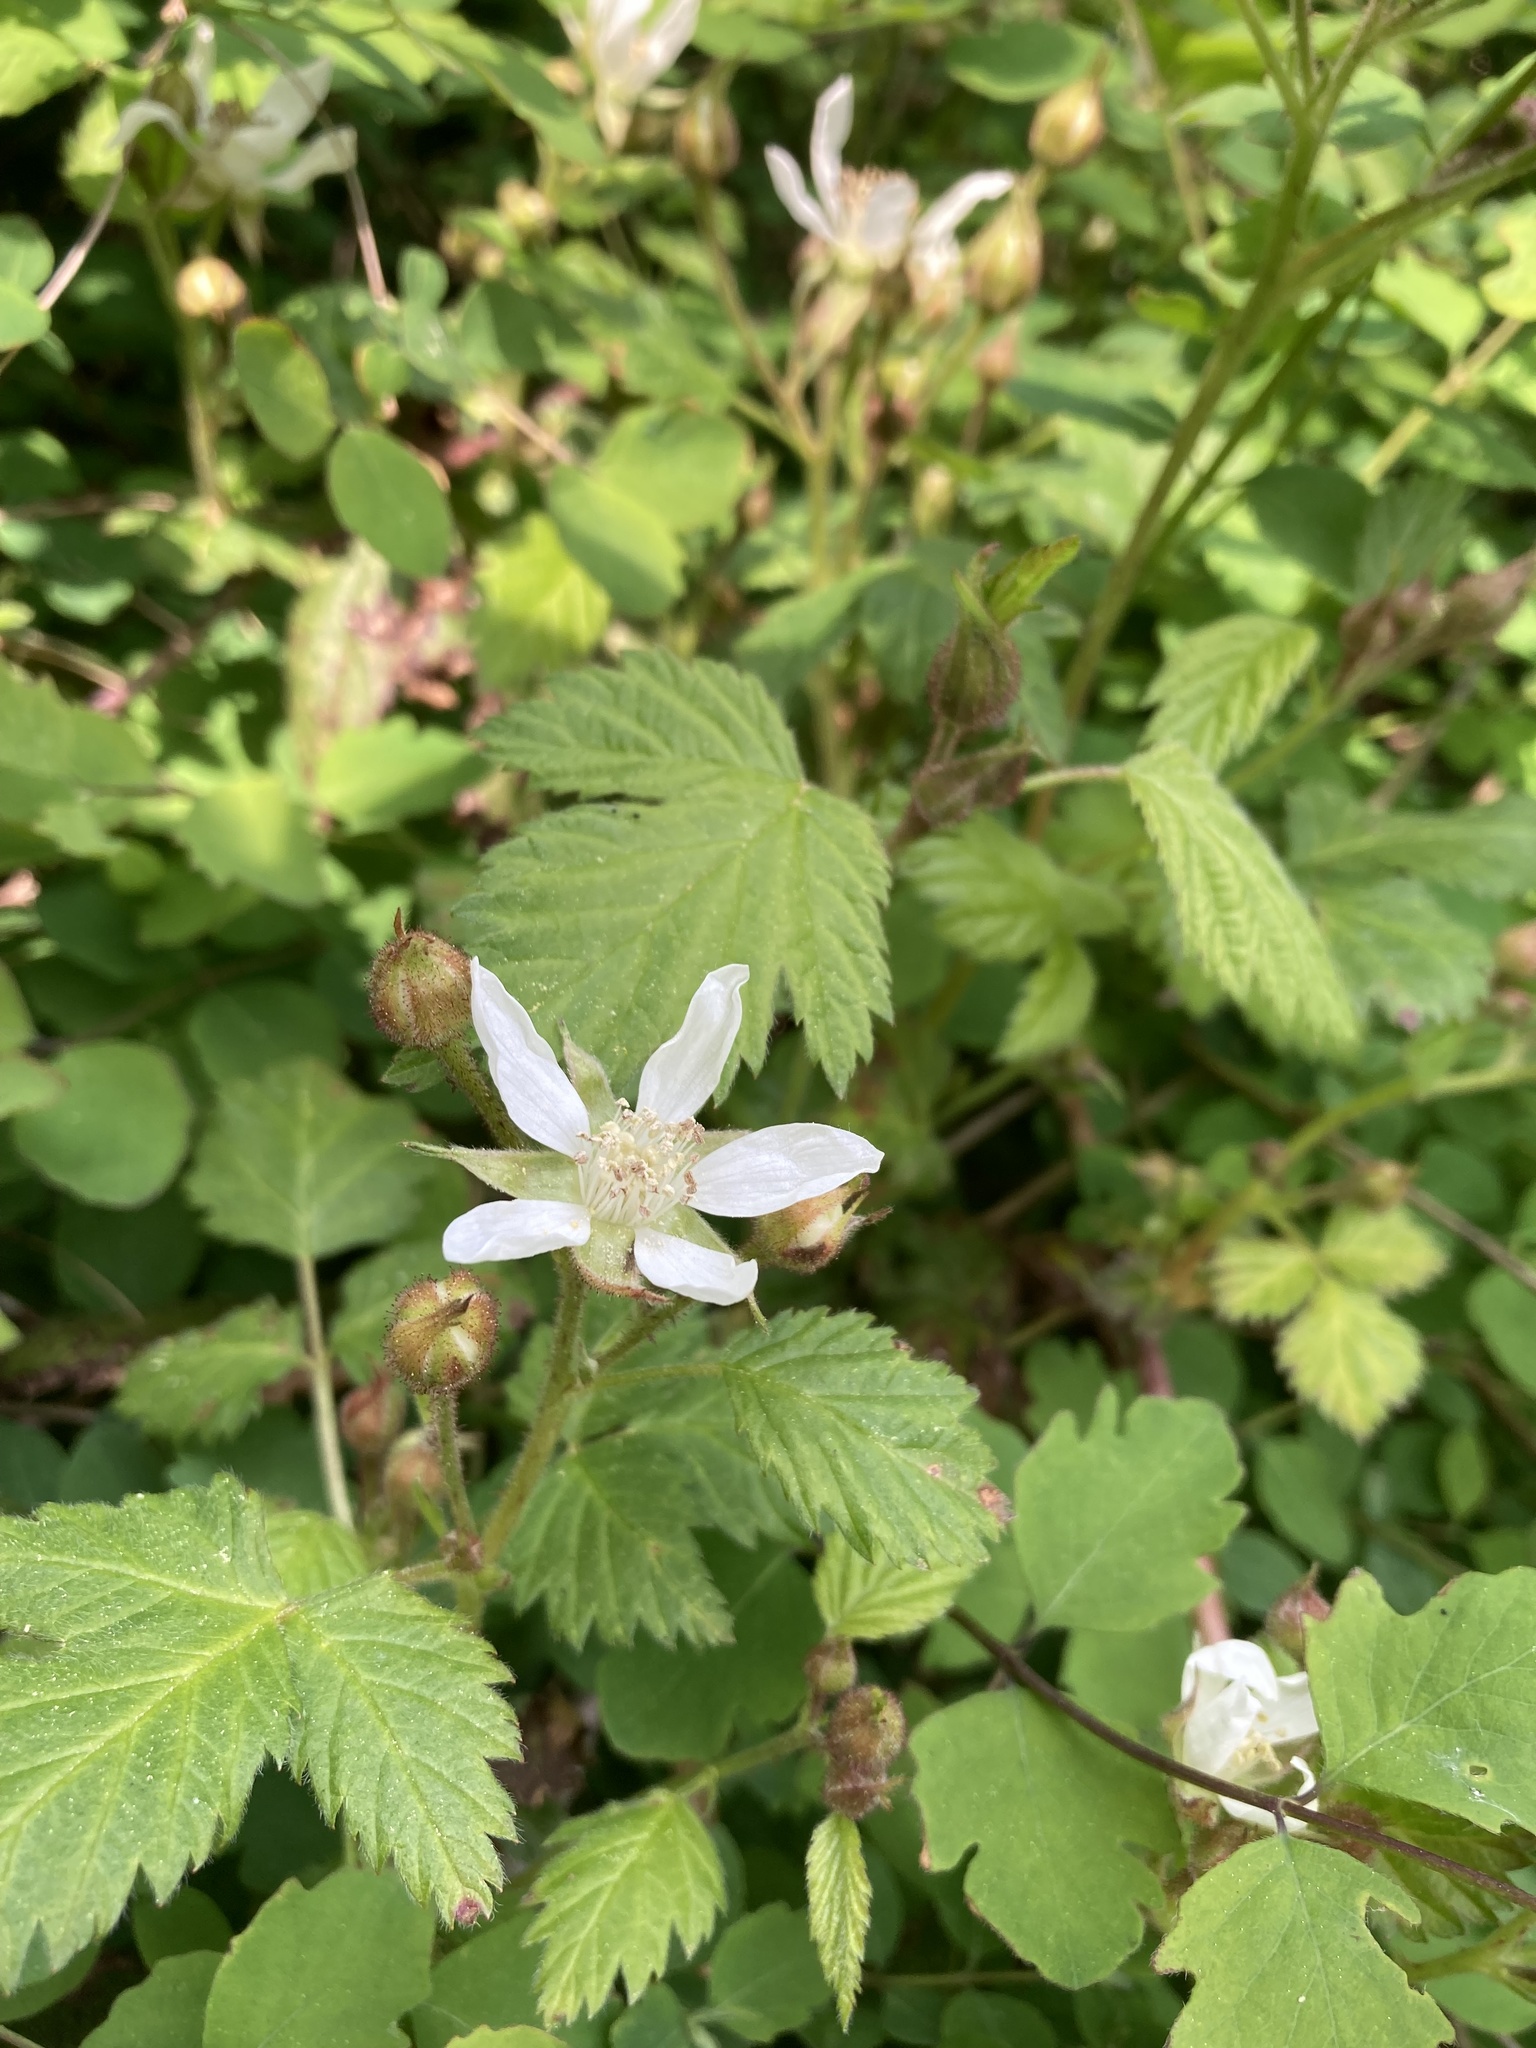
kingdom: Plantae
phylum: Tracheophyta
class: Magnoliopsida
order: Rosales
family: Rosaceae
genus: Rubus
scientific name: Rubus ursinus
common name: Pacific blackberry
